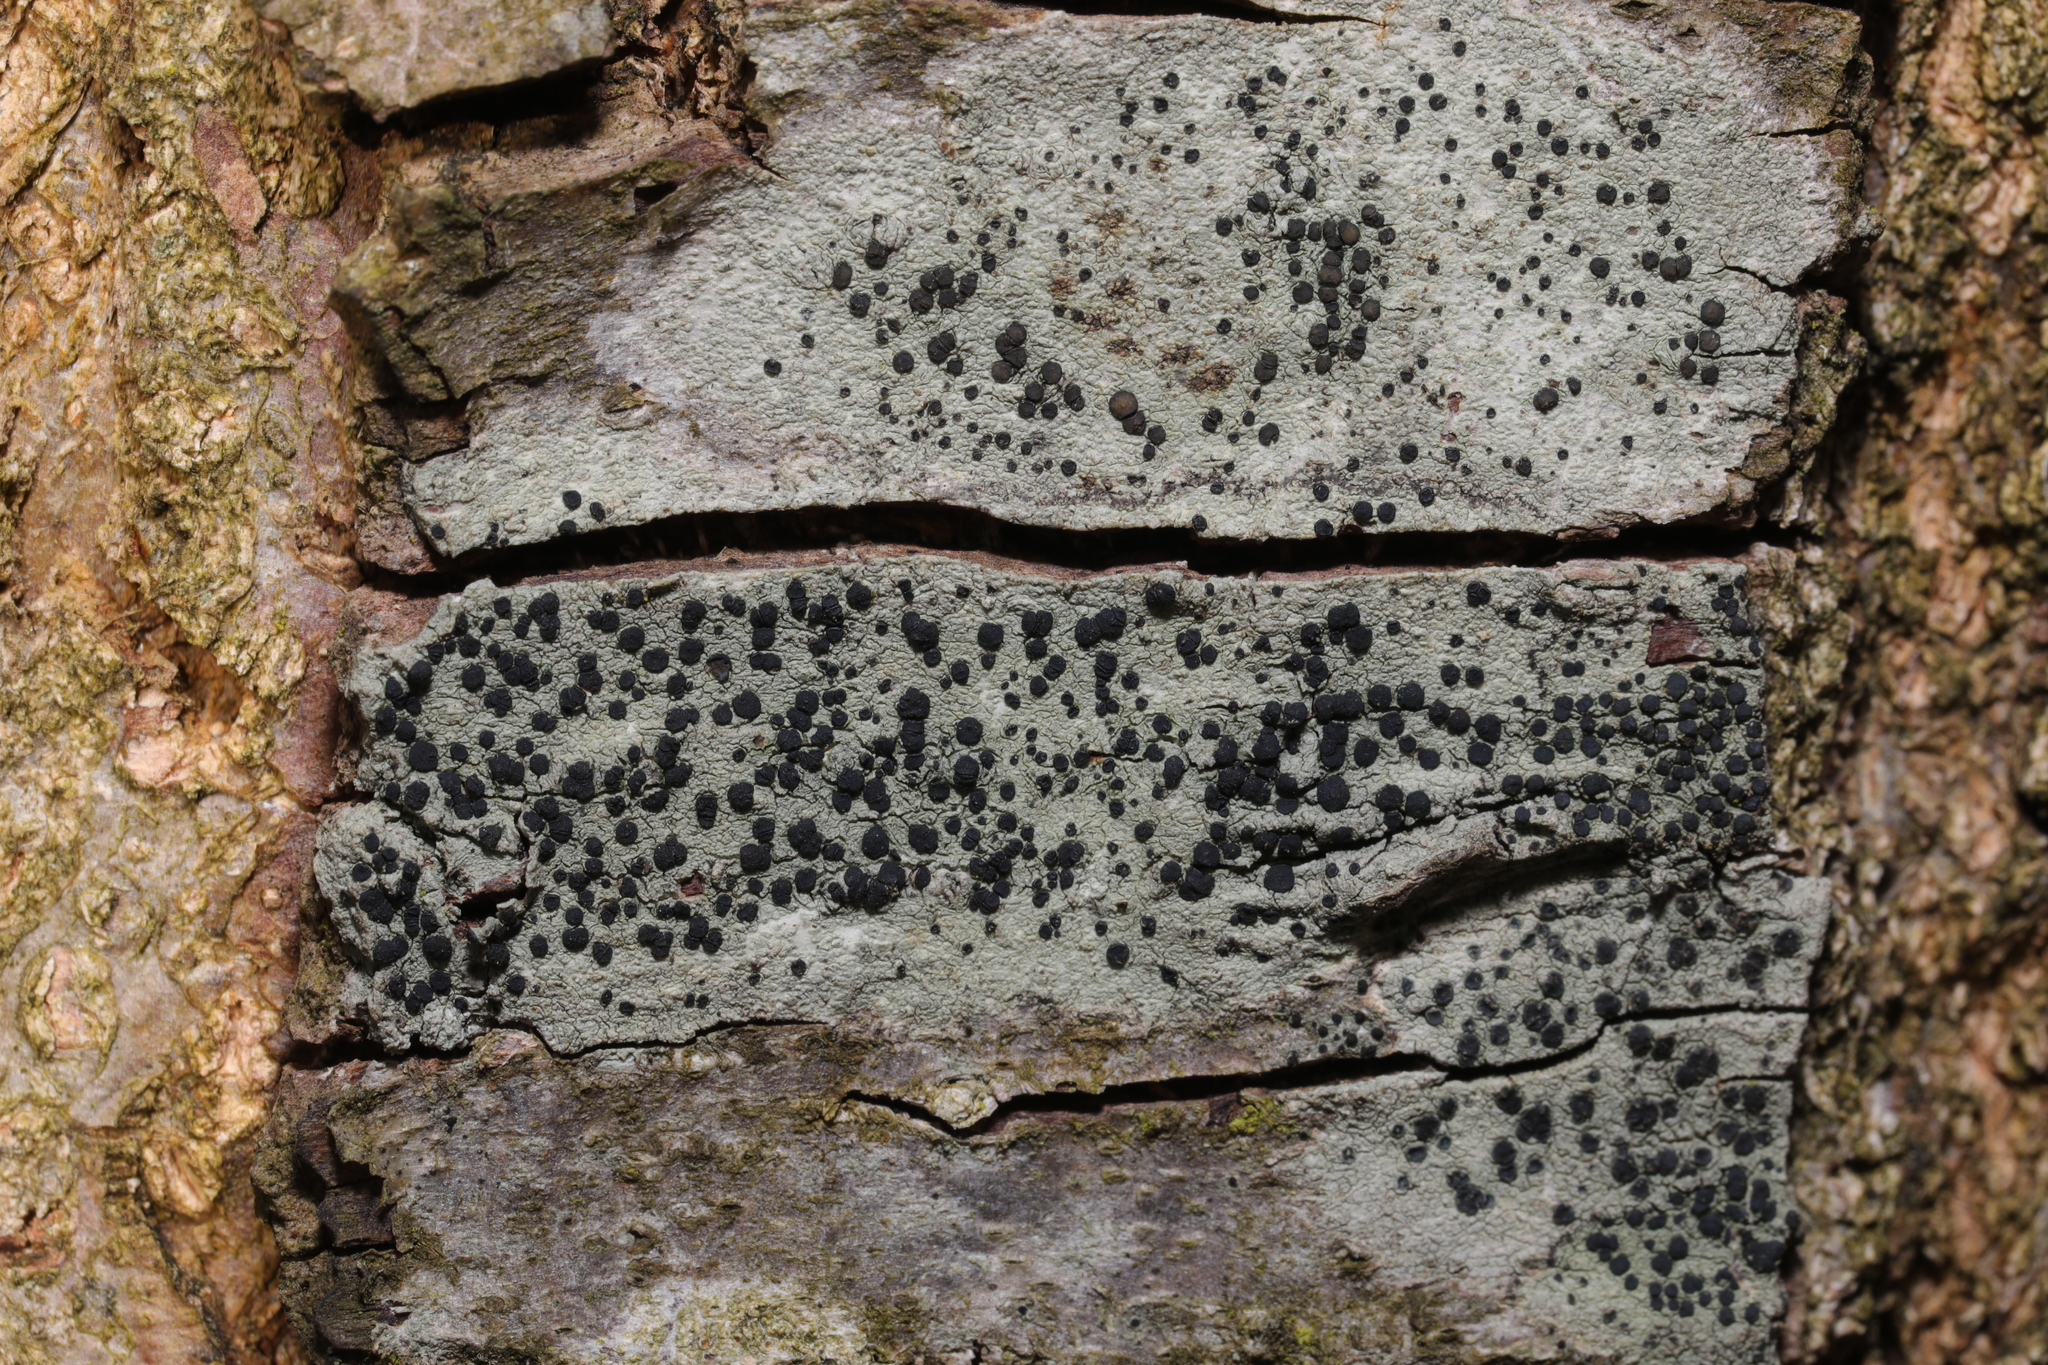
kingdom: Fungi
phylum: Ascomycota
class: Lecanoromycetes
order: Lecanorales
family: Lecanoraceae
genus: Lecidella
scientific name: Lecidella elaeochroma
